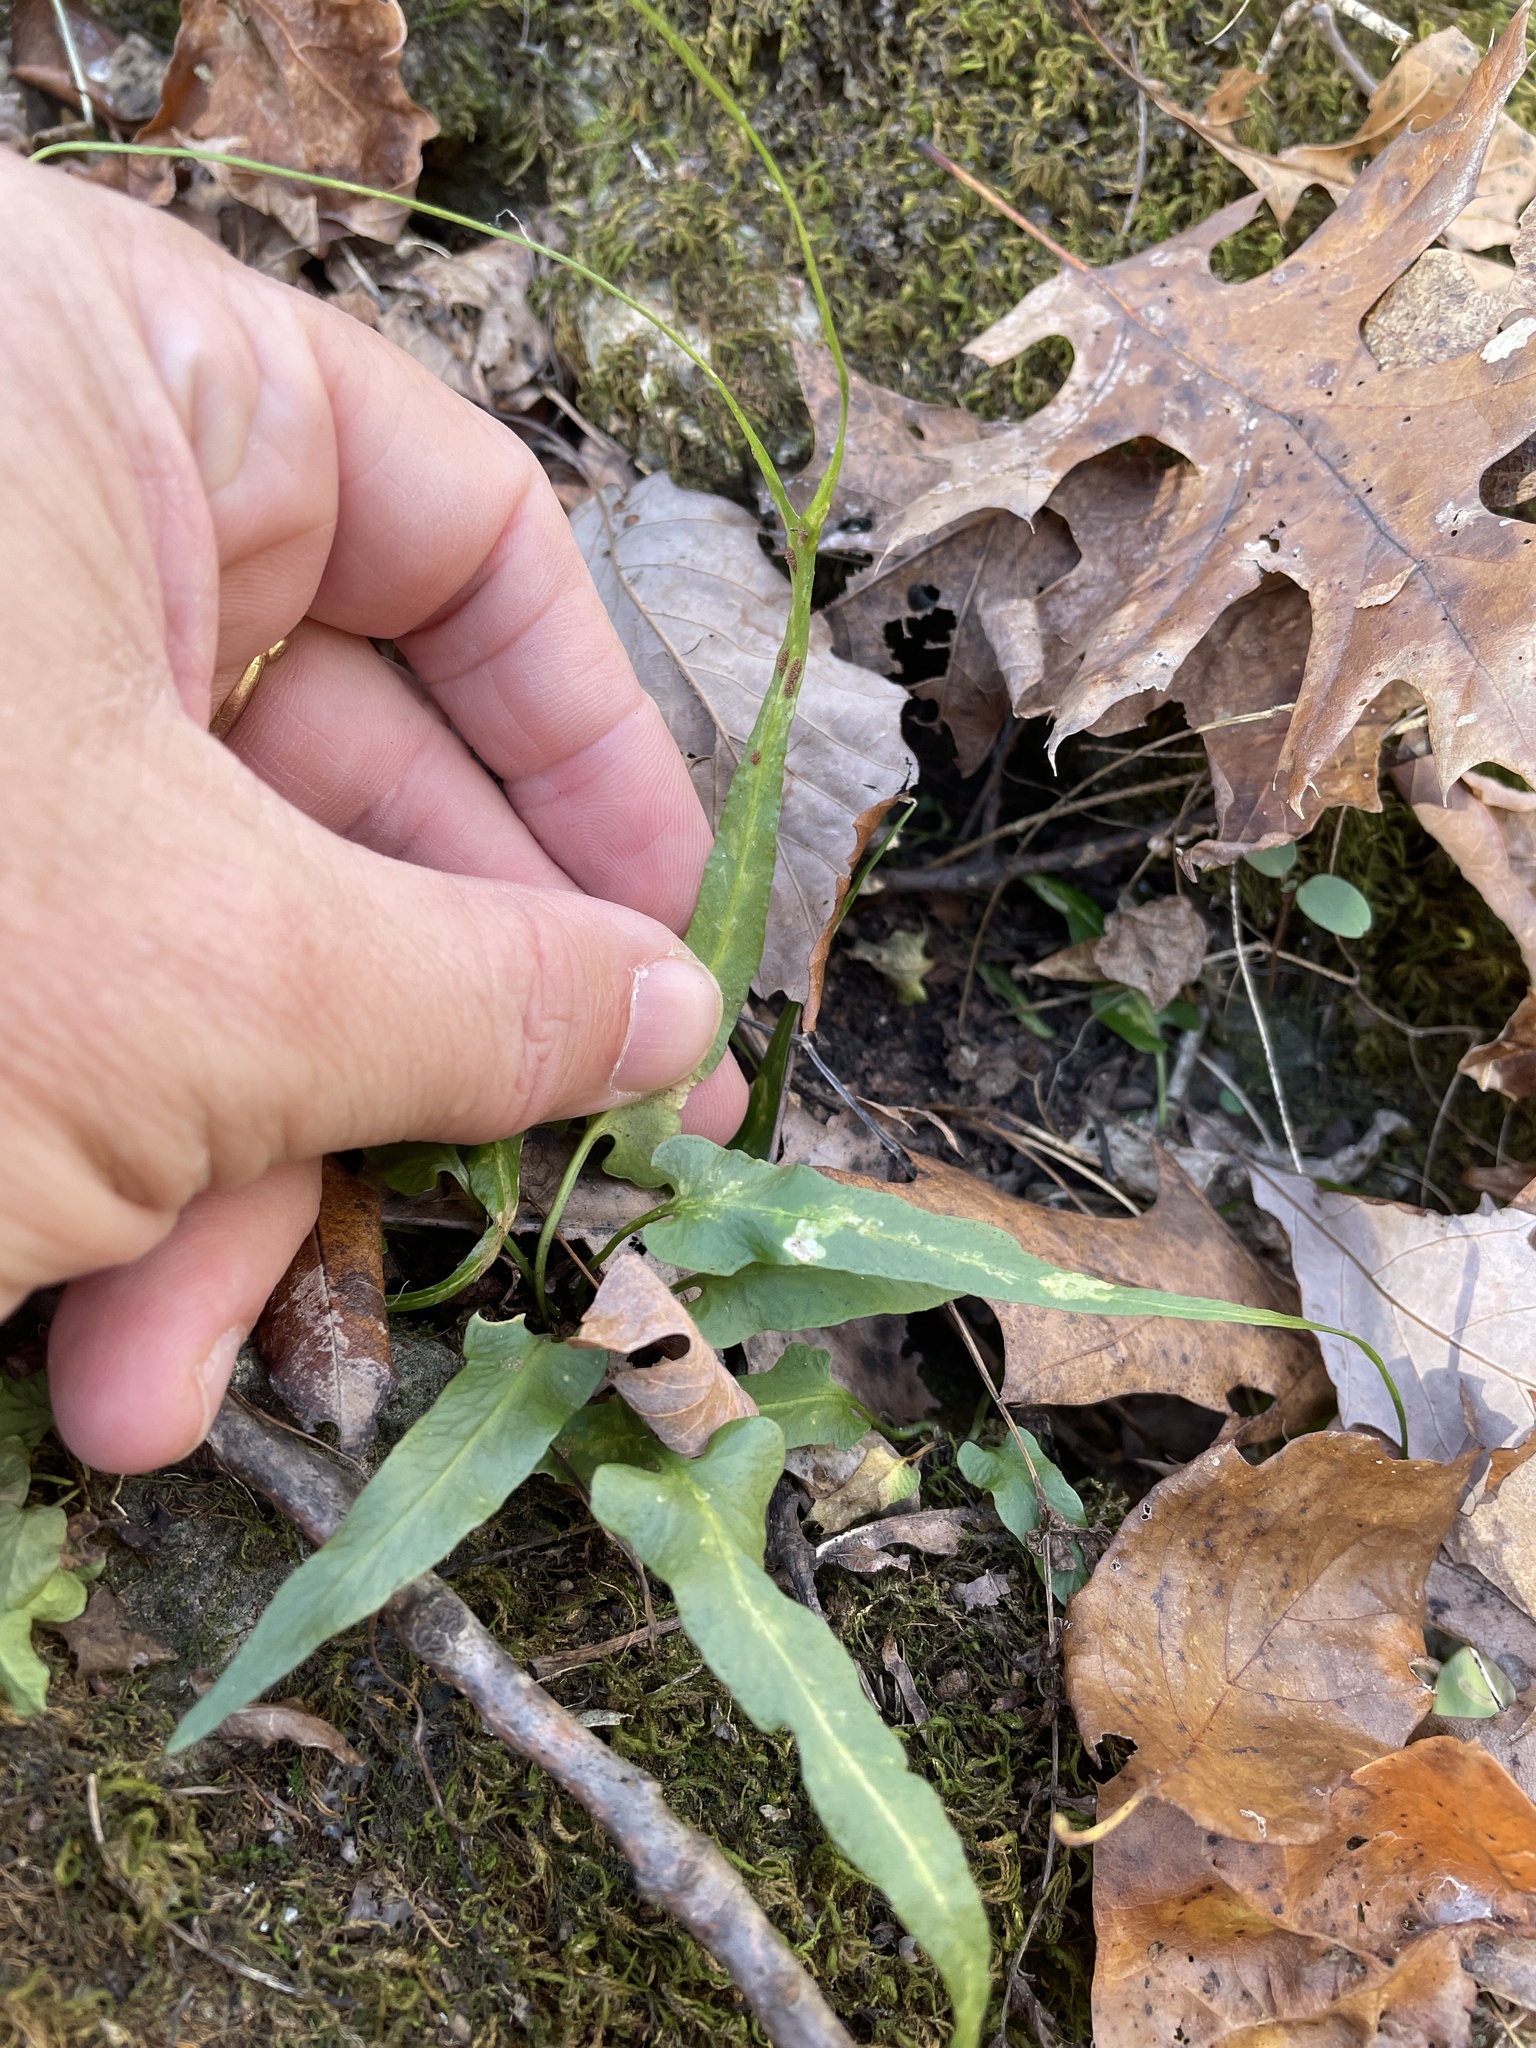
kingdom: Plantae
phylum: Tracheophyta
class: Polypodiopsida
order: Polypodiales
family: Aspleniaceae
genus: Asplenium
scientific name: Asplenium rhizophyllum
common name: Walking fern
